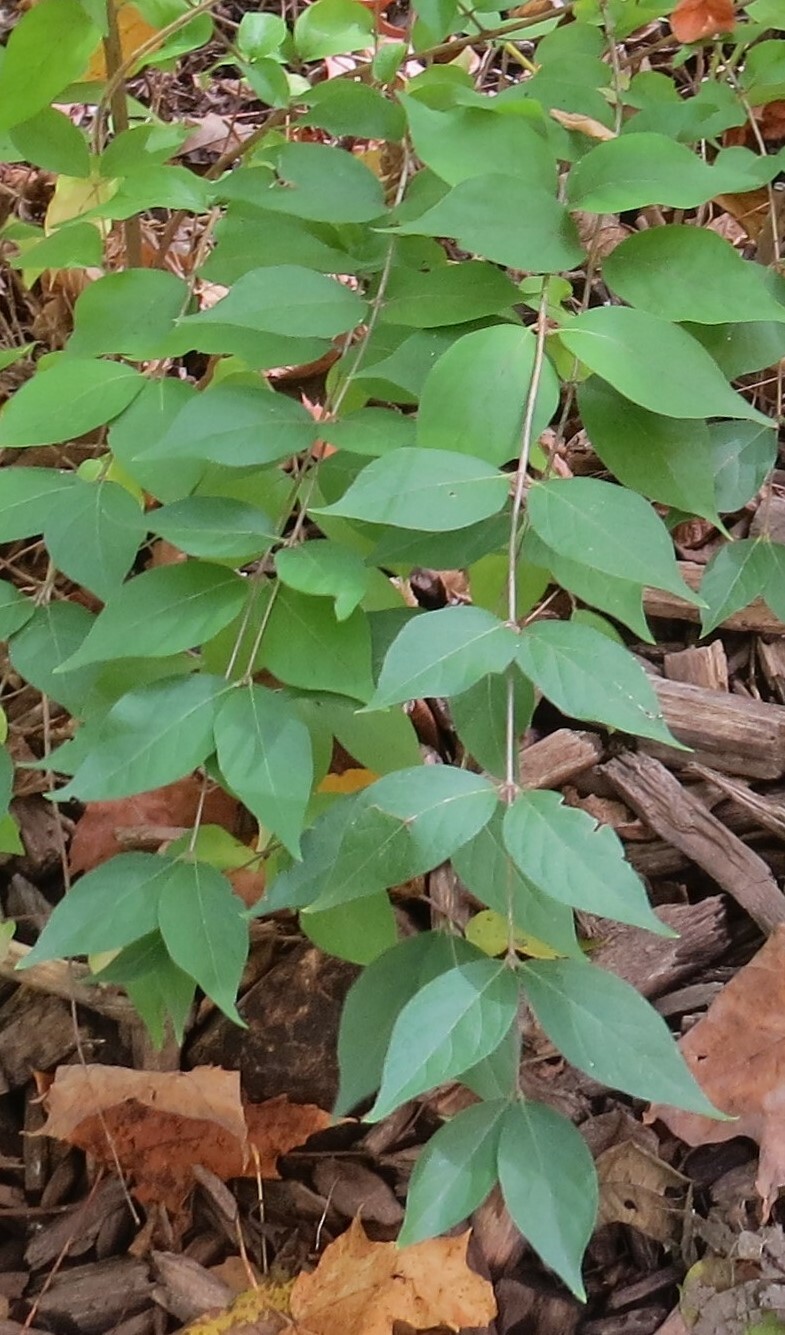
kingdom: Plantae
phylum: Tracheophyta
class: Magnoliopsida
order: Dipsacales
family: Caprifoliaceae
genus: Lonicera
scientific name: Lonicera maackii
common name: Amur honeysuckle
